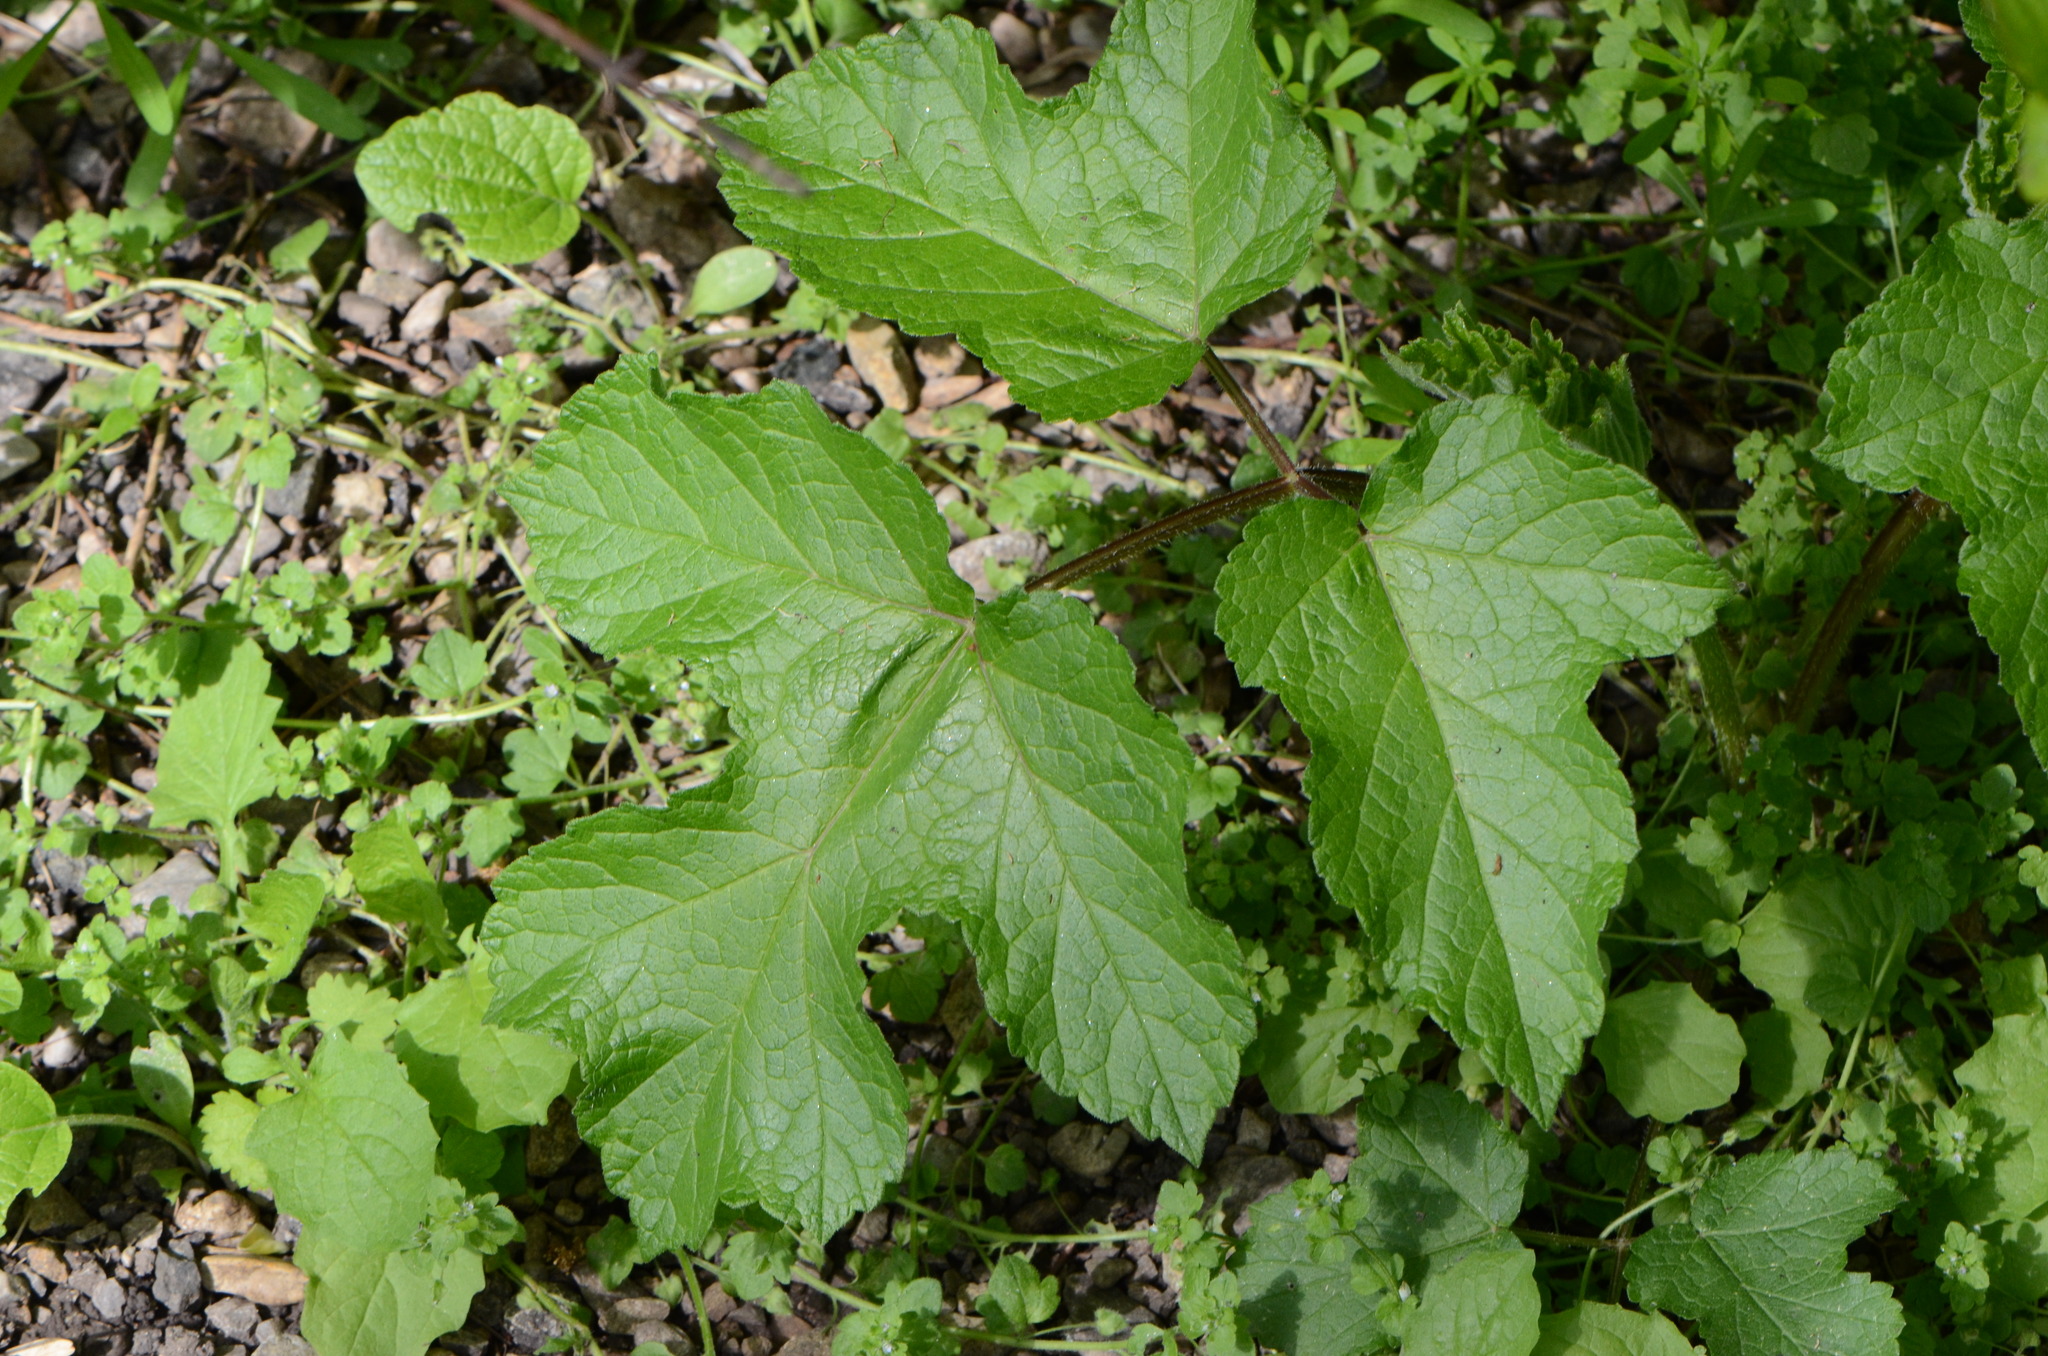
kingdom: Plantae
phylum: Tracheophyta
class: Magnoliopsida
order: Apiales
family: Apiaceae
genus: Heracleum
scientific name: Heracleum sphondylium
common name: Hogweed
